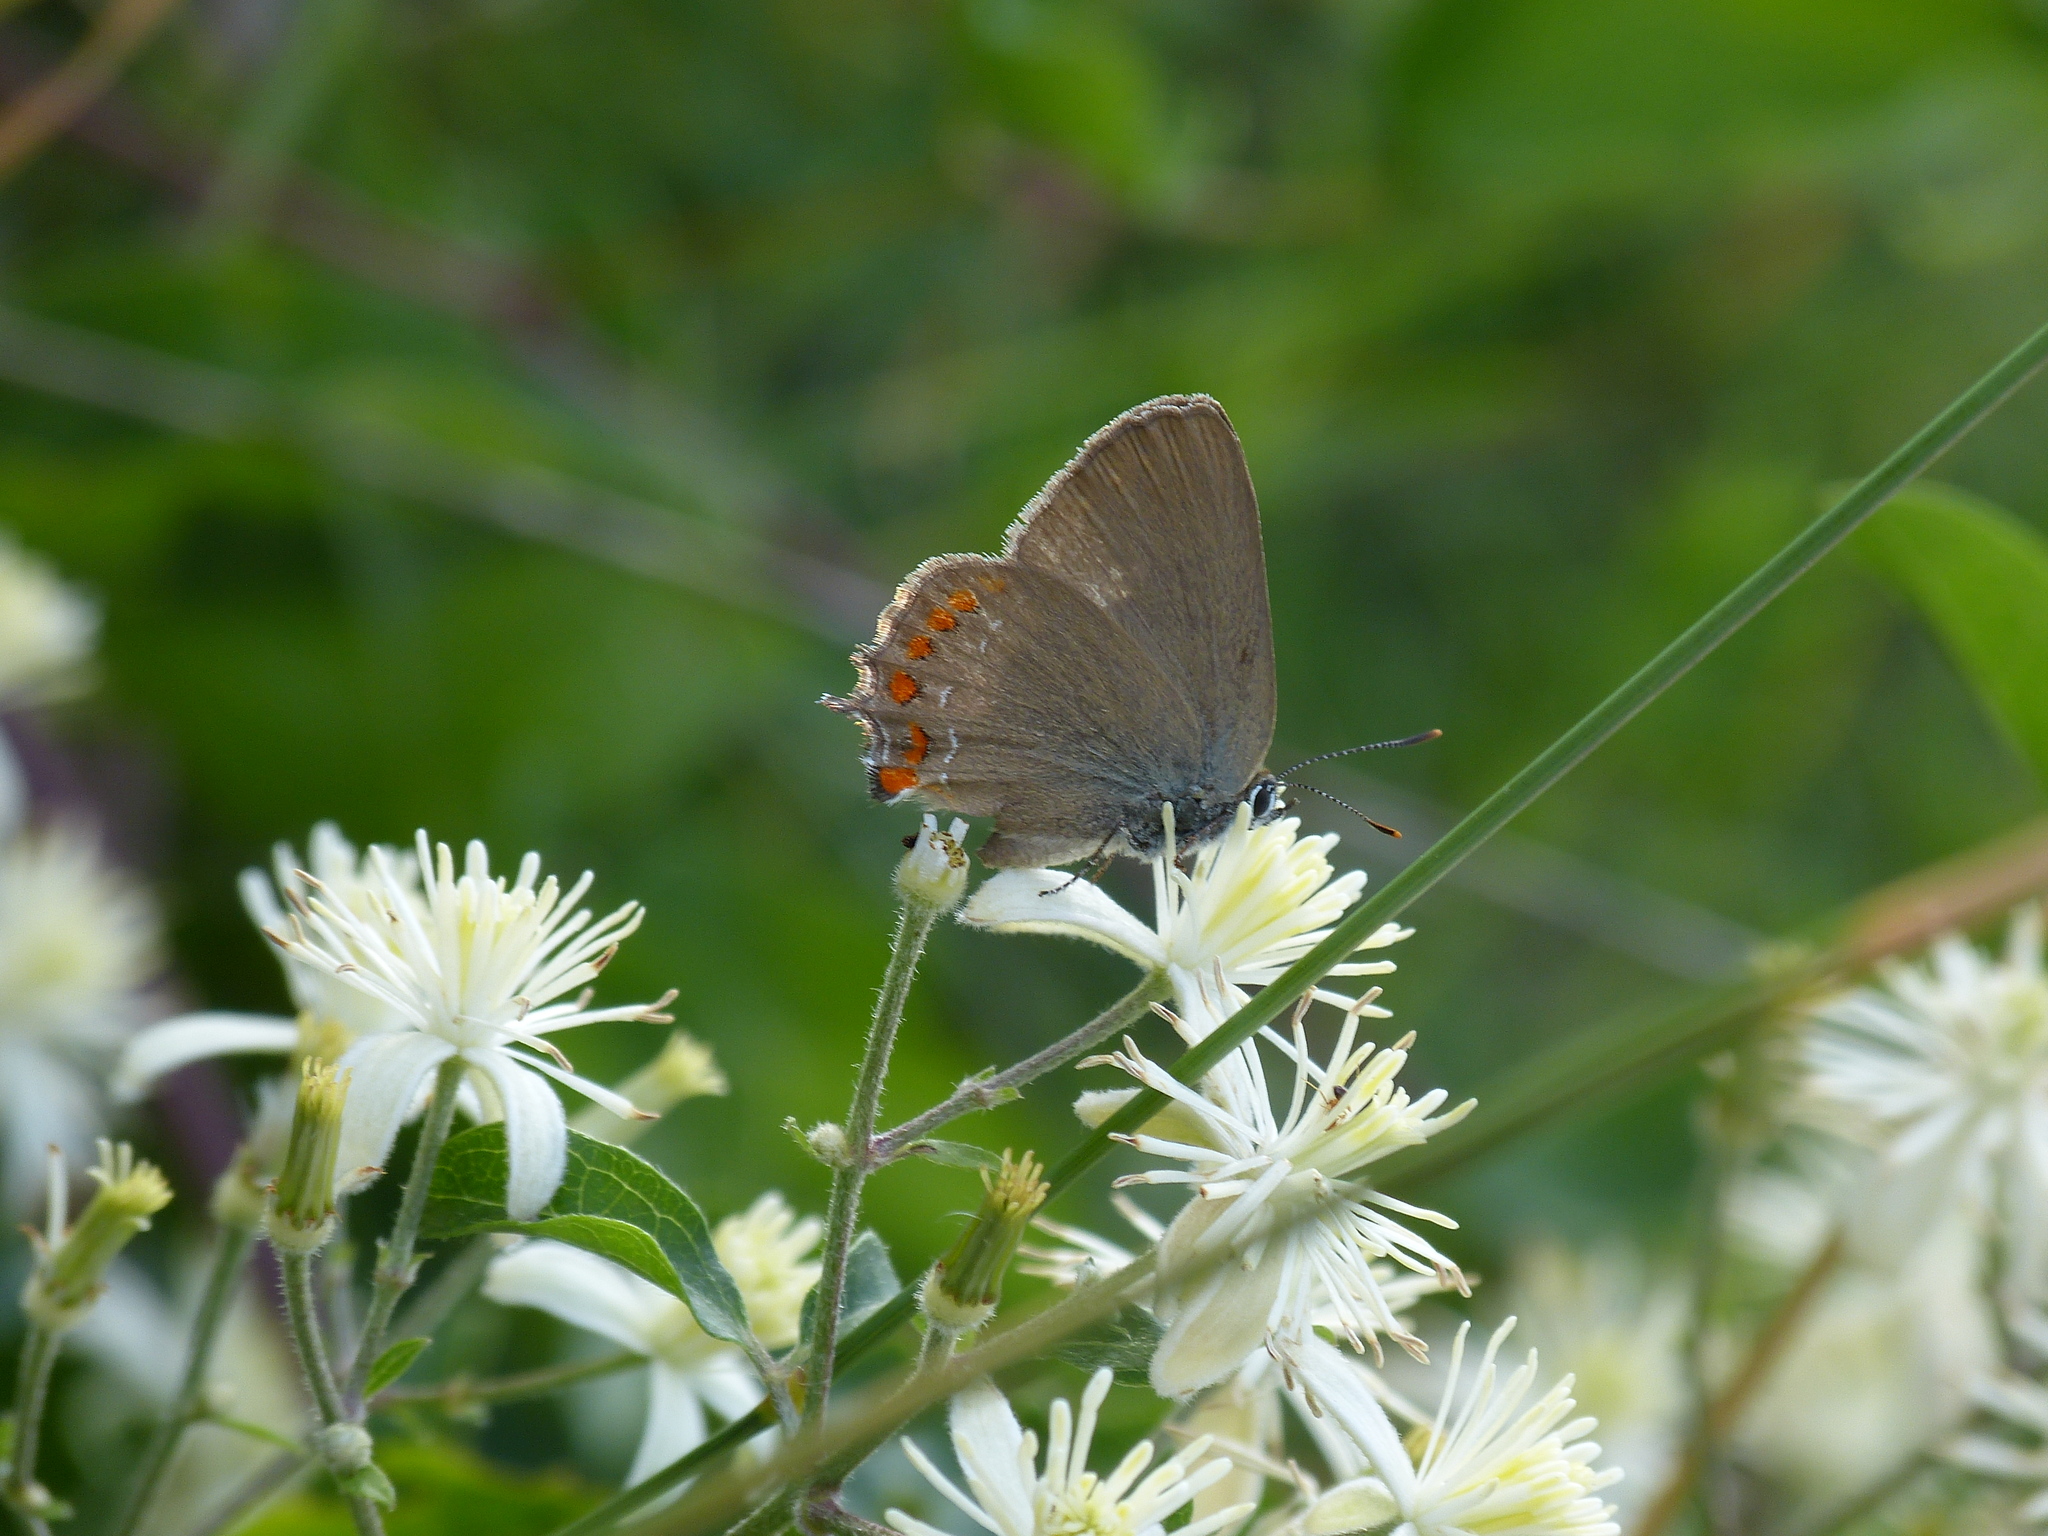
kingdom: Animalia
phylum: Arthropoda
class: Insecta
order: Lepidoptera
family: Lycaenidae
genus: Fixsenia
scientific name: Fixsenia esculi
